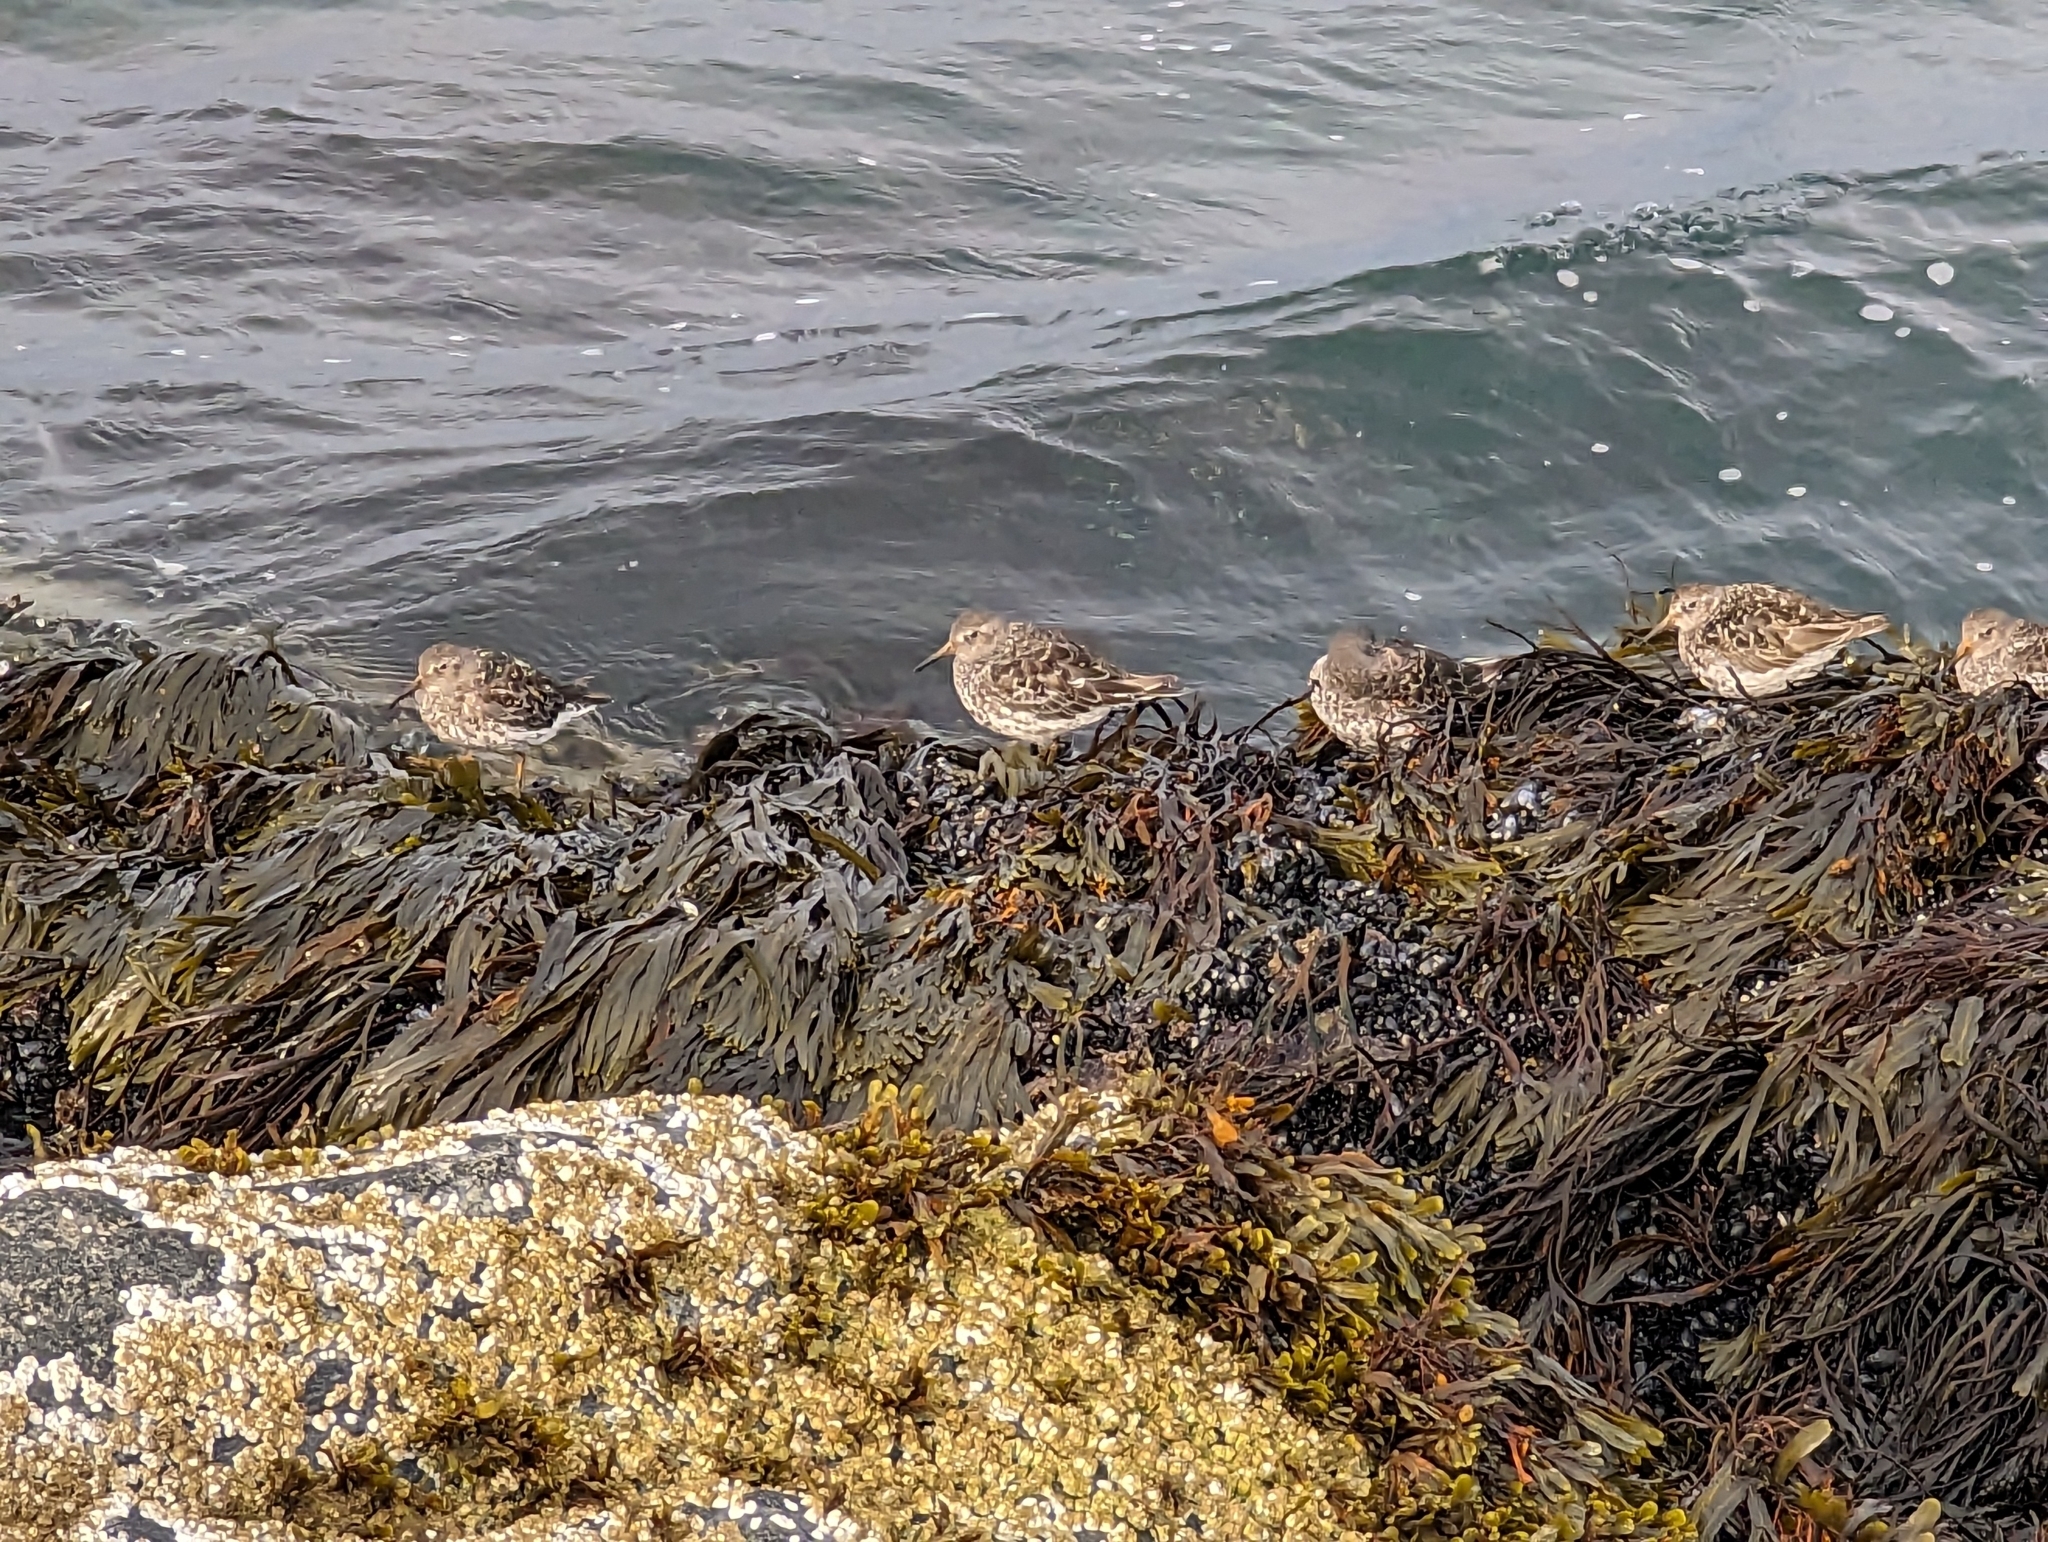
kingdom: Animalia
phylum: Chordata
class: Aves
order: Charadriiformes
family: Scolopacidae
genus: Calidris
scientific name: Calidris maritima
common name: Purple sandpiper
